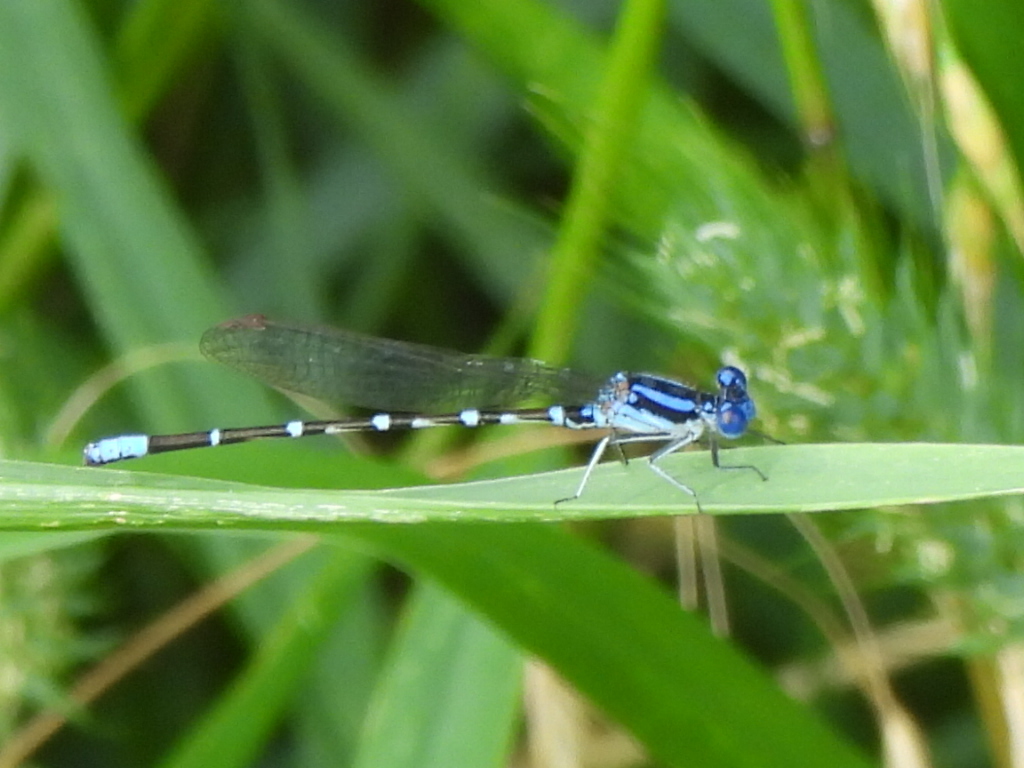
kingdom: Animalia
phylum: Arthropoda
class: Insecta
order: Odonata
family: Coenagrionidae
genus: Argia
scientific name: Argia sedula
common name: Blue-ringed dancer
